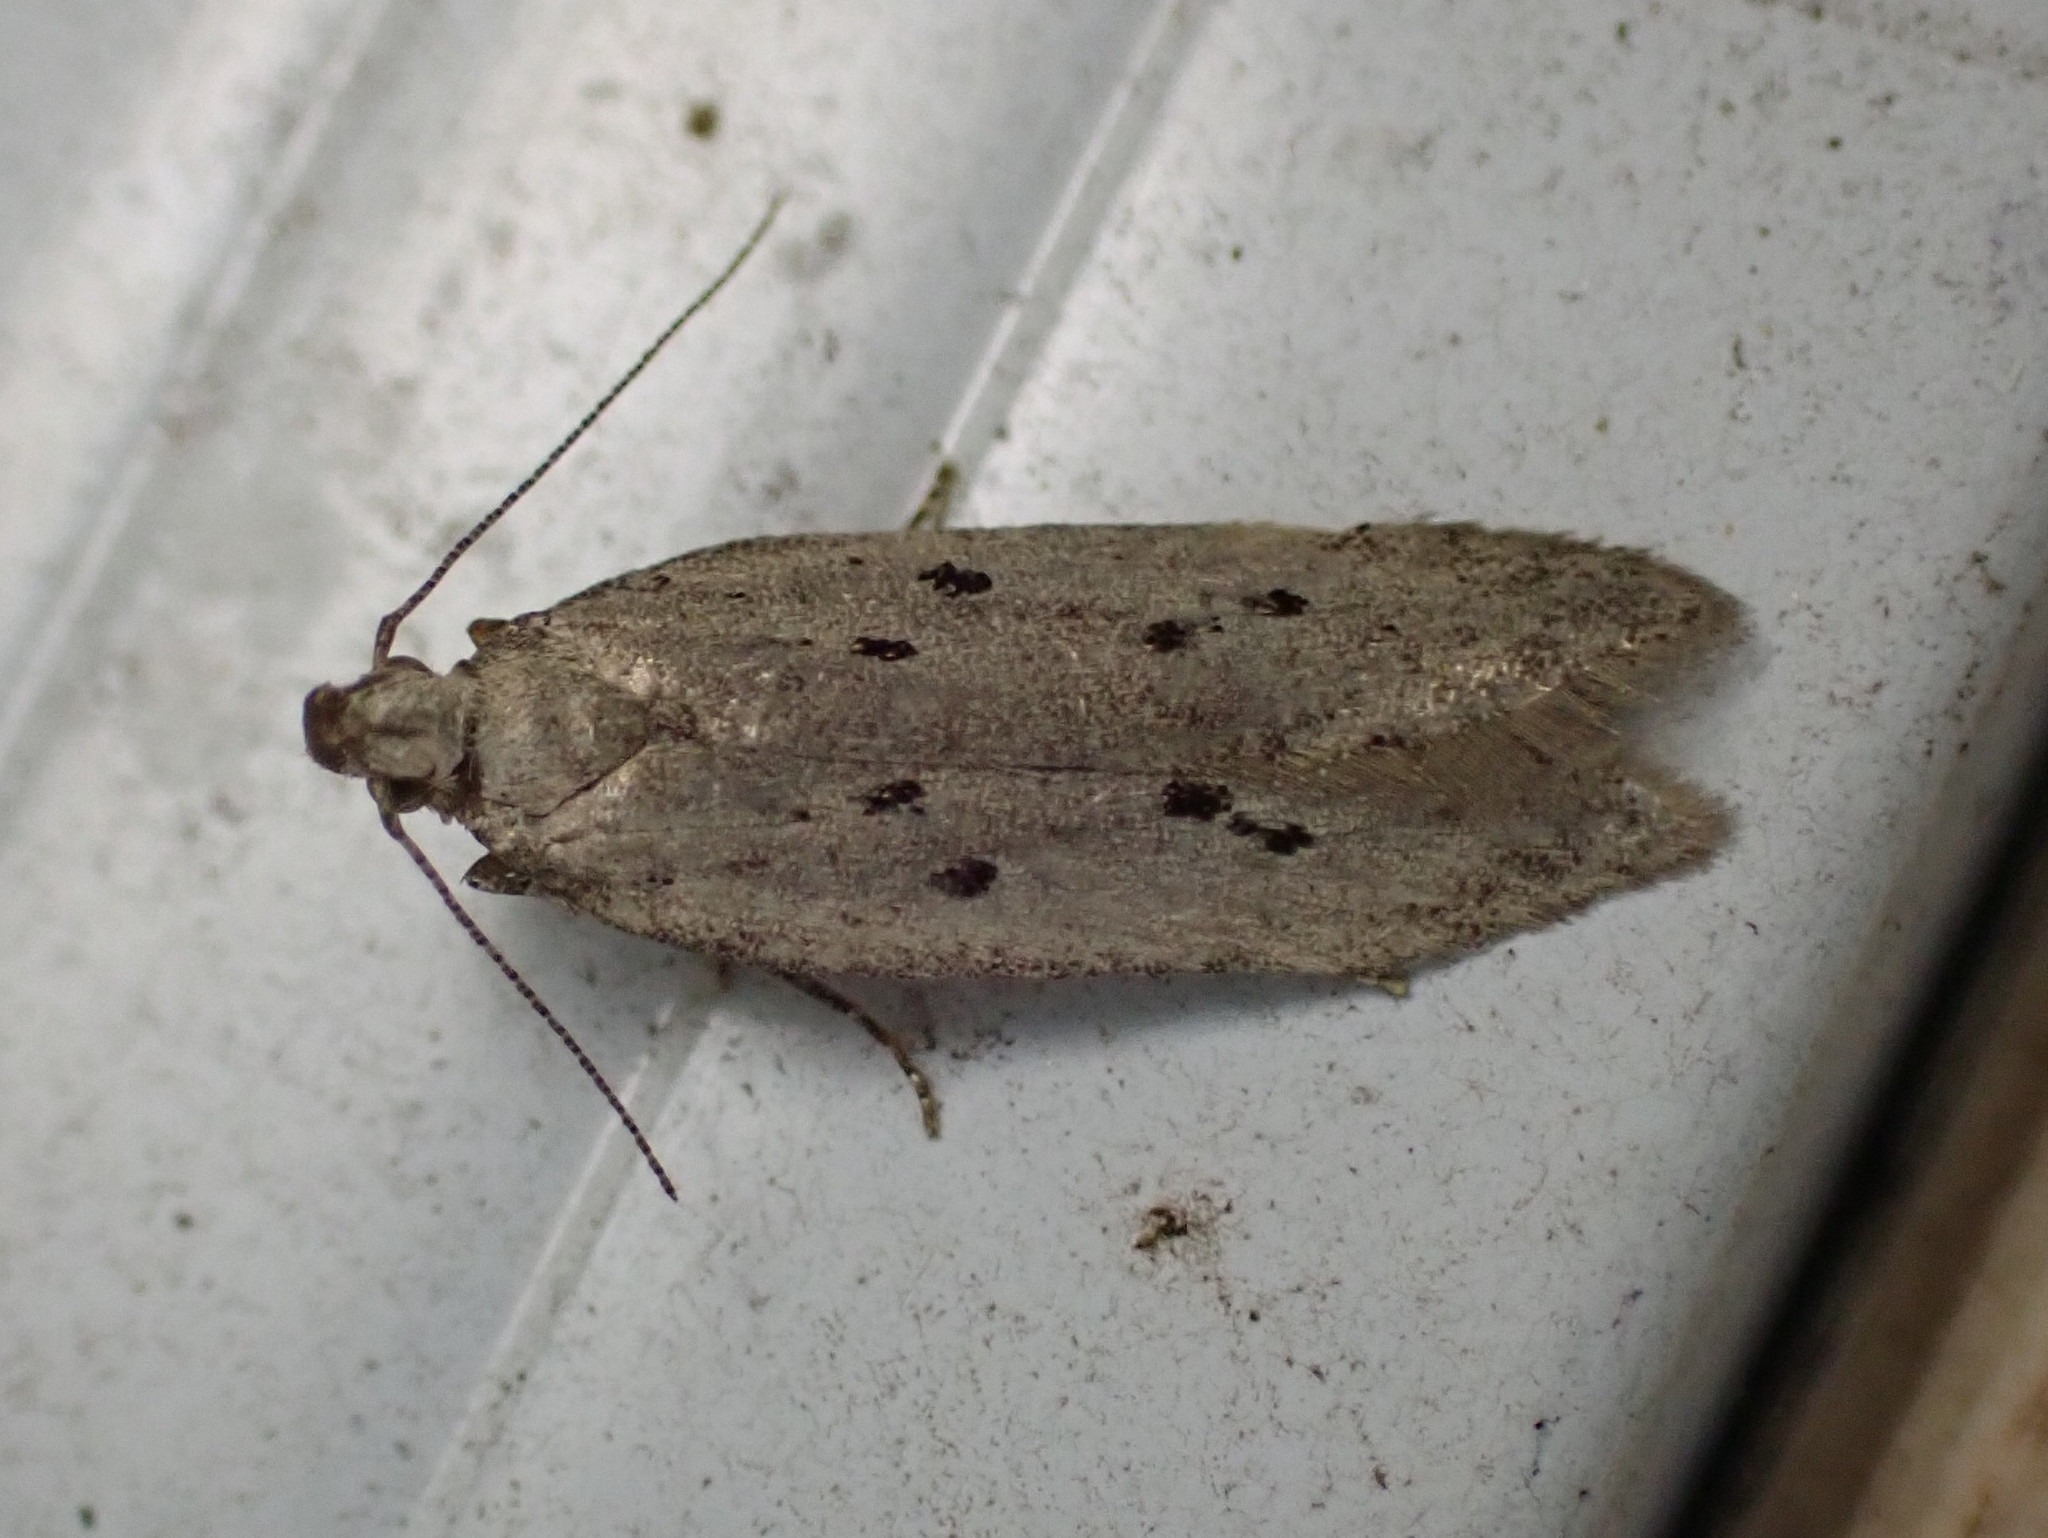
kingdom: Animalia
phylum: Arthropoda
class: Insecta
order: Lepidoptera
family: Gelechiidae
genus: Athrips
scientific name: Athrips mouffetella
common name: Dotted grey groundling
